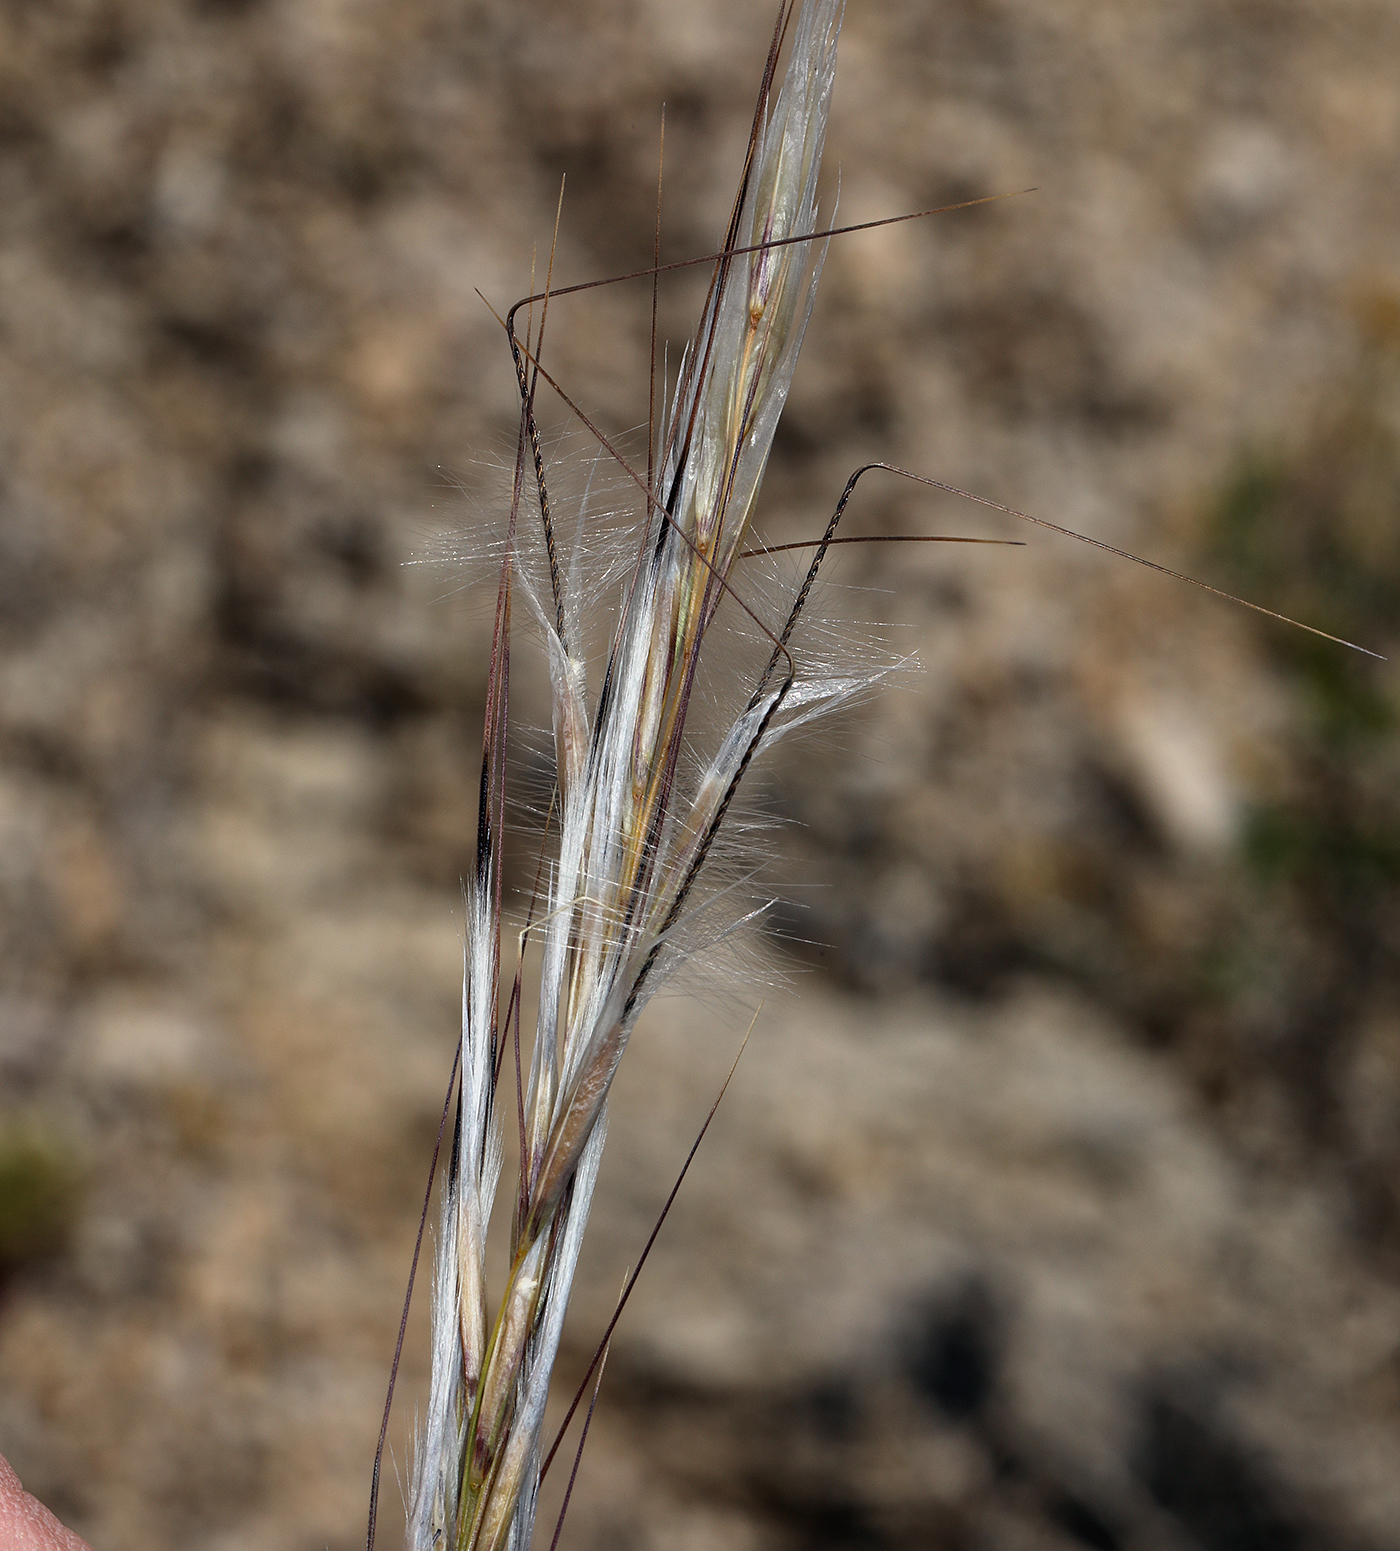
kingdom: Plantae
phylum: Tracheophyta
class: Liliopsida
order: Poales
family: Poaceae
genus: Pappostipa
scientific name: Pappostipa speciosa
